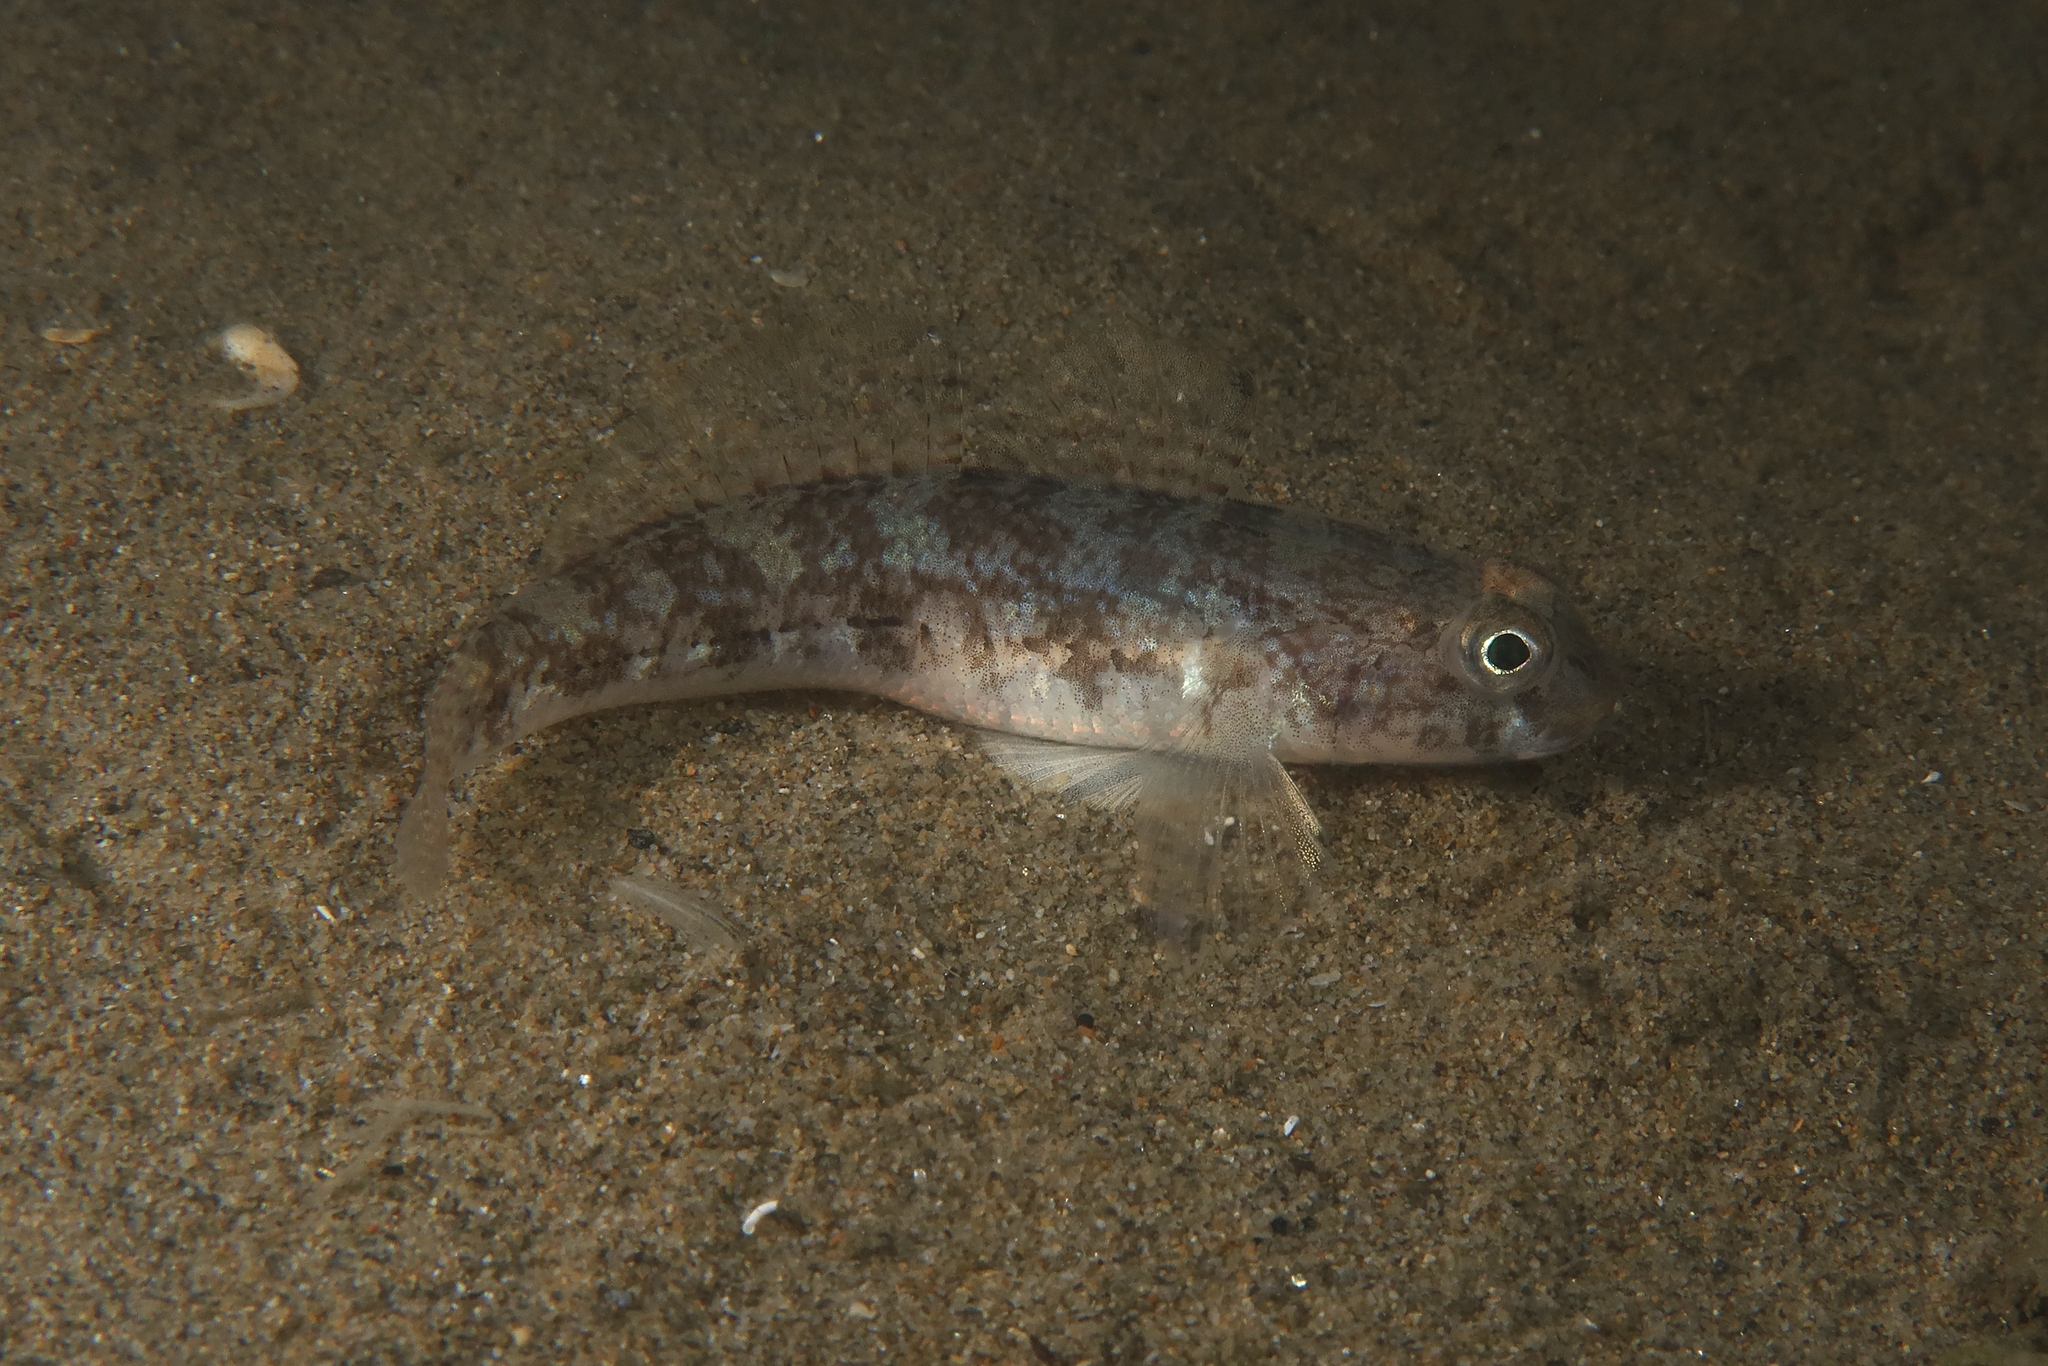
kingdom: Animalia
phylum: Chordata
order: Perciformes
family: Gobiidae
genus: Gobius
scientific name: Gobius niger
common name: Black goby
